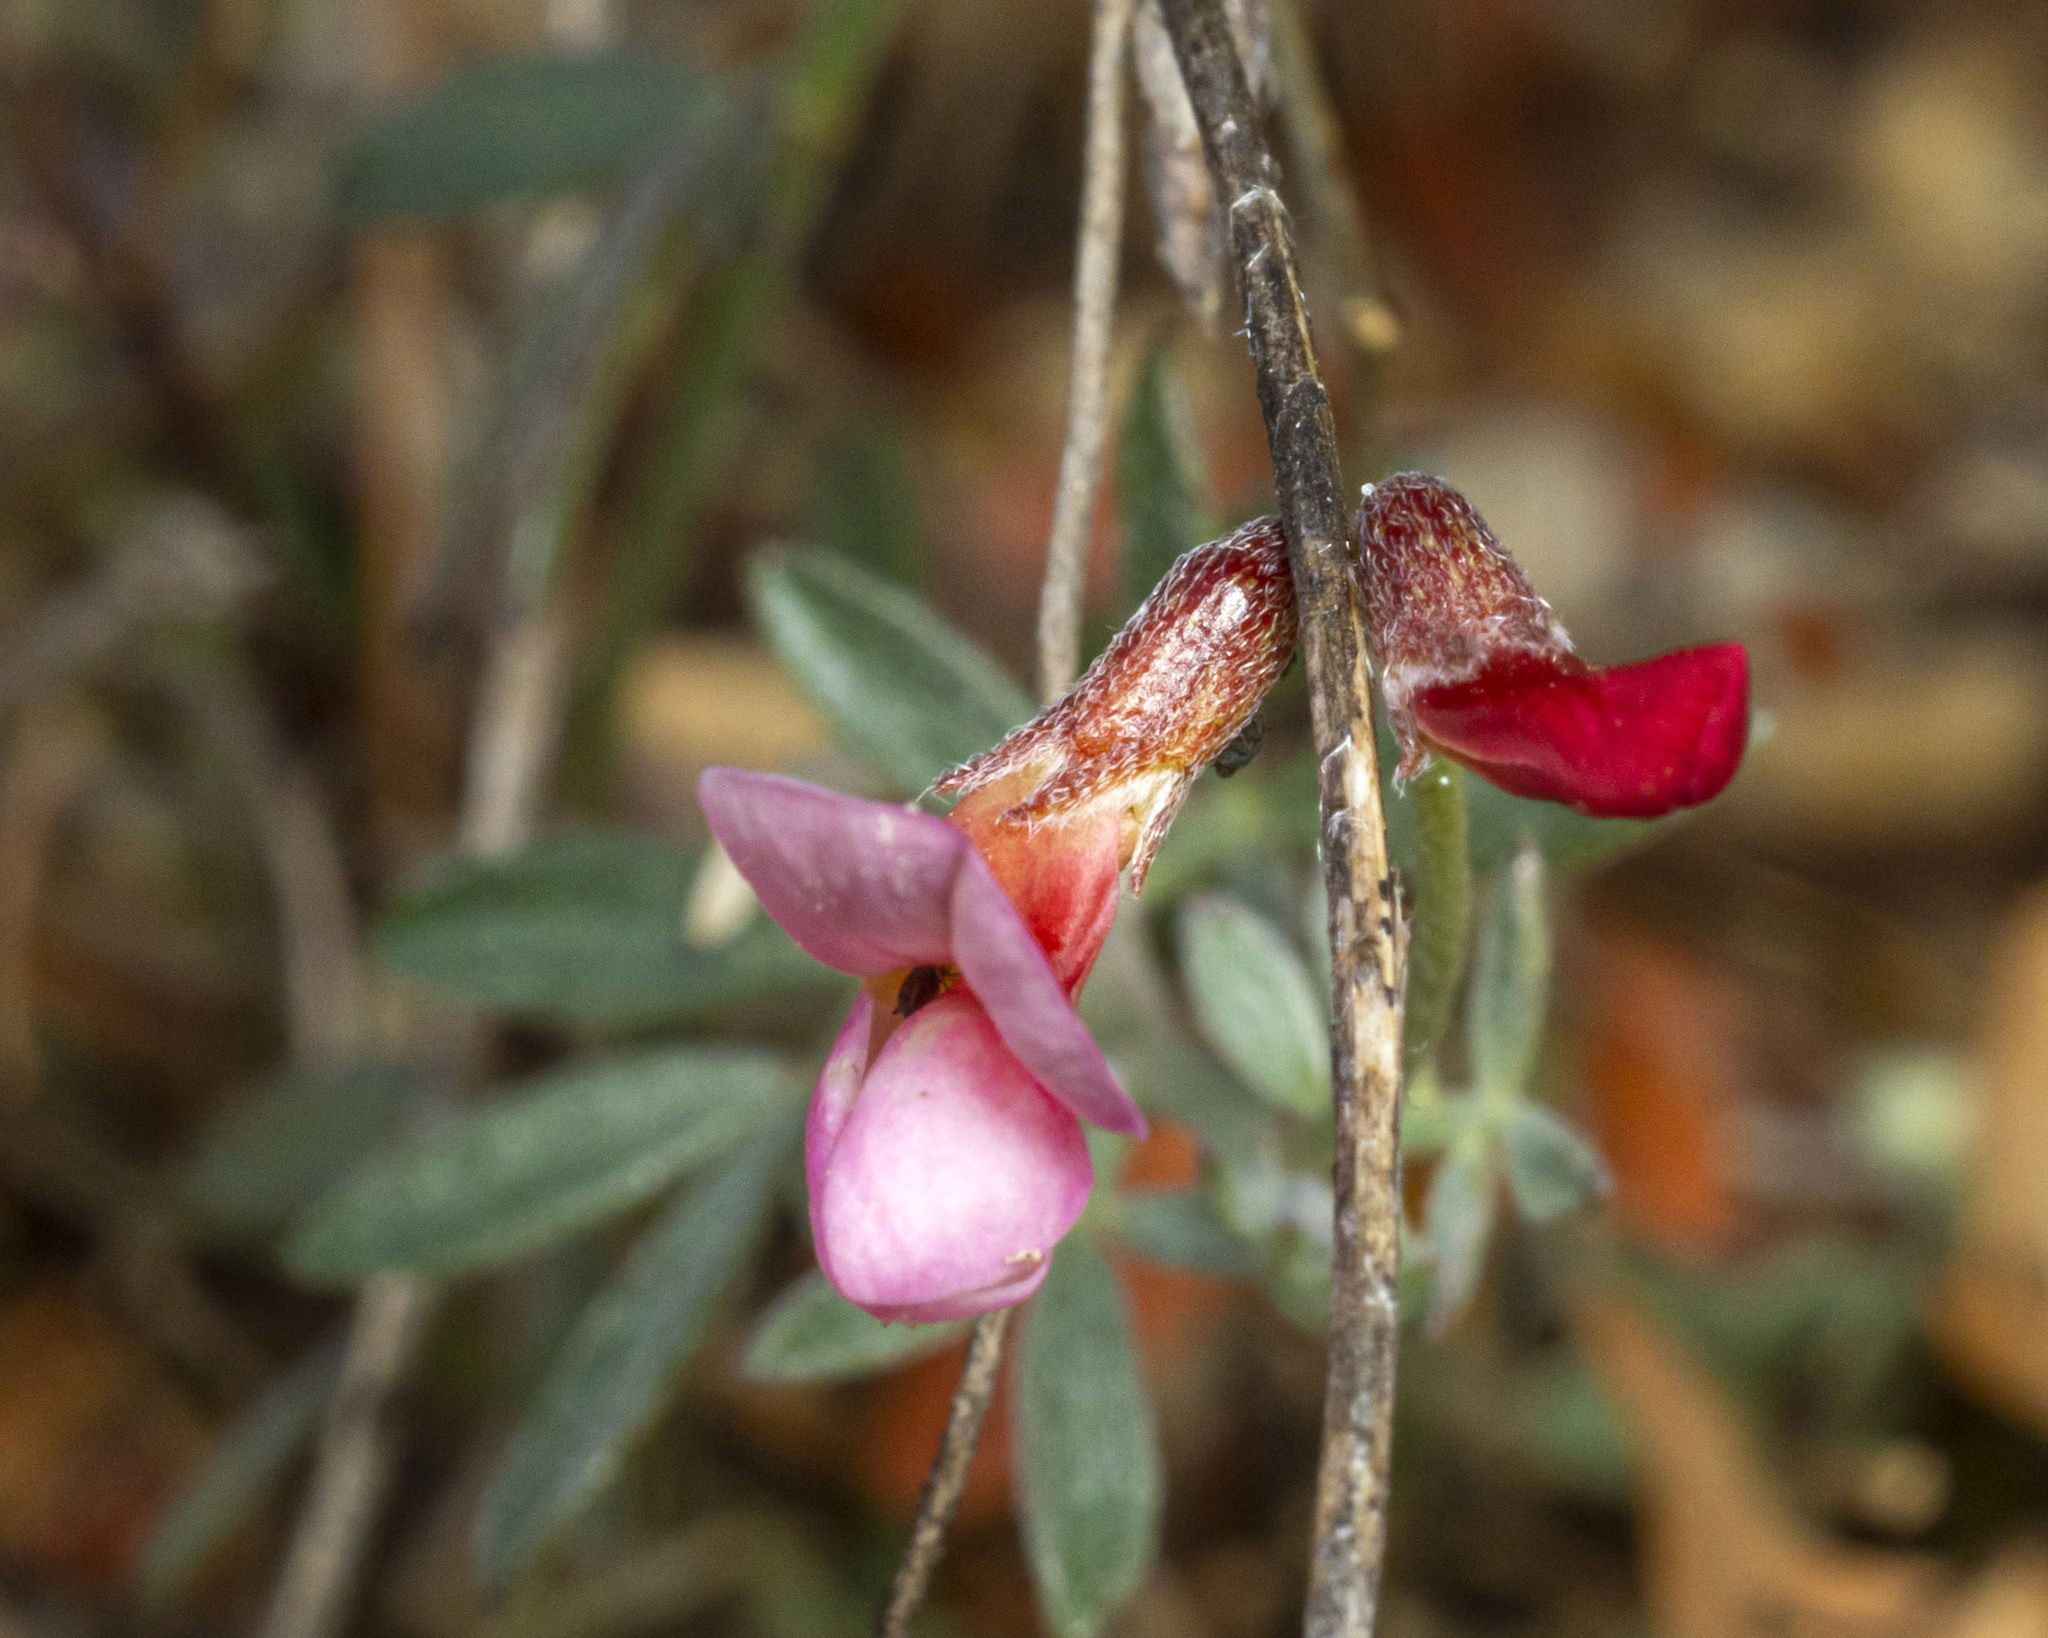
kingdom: Plantae
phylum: Tracheophyta
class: Magnoliopsida
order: Fabales
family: Fabaceae
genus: Acmispon
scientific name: Acmispon plebeius
